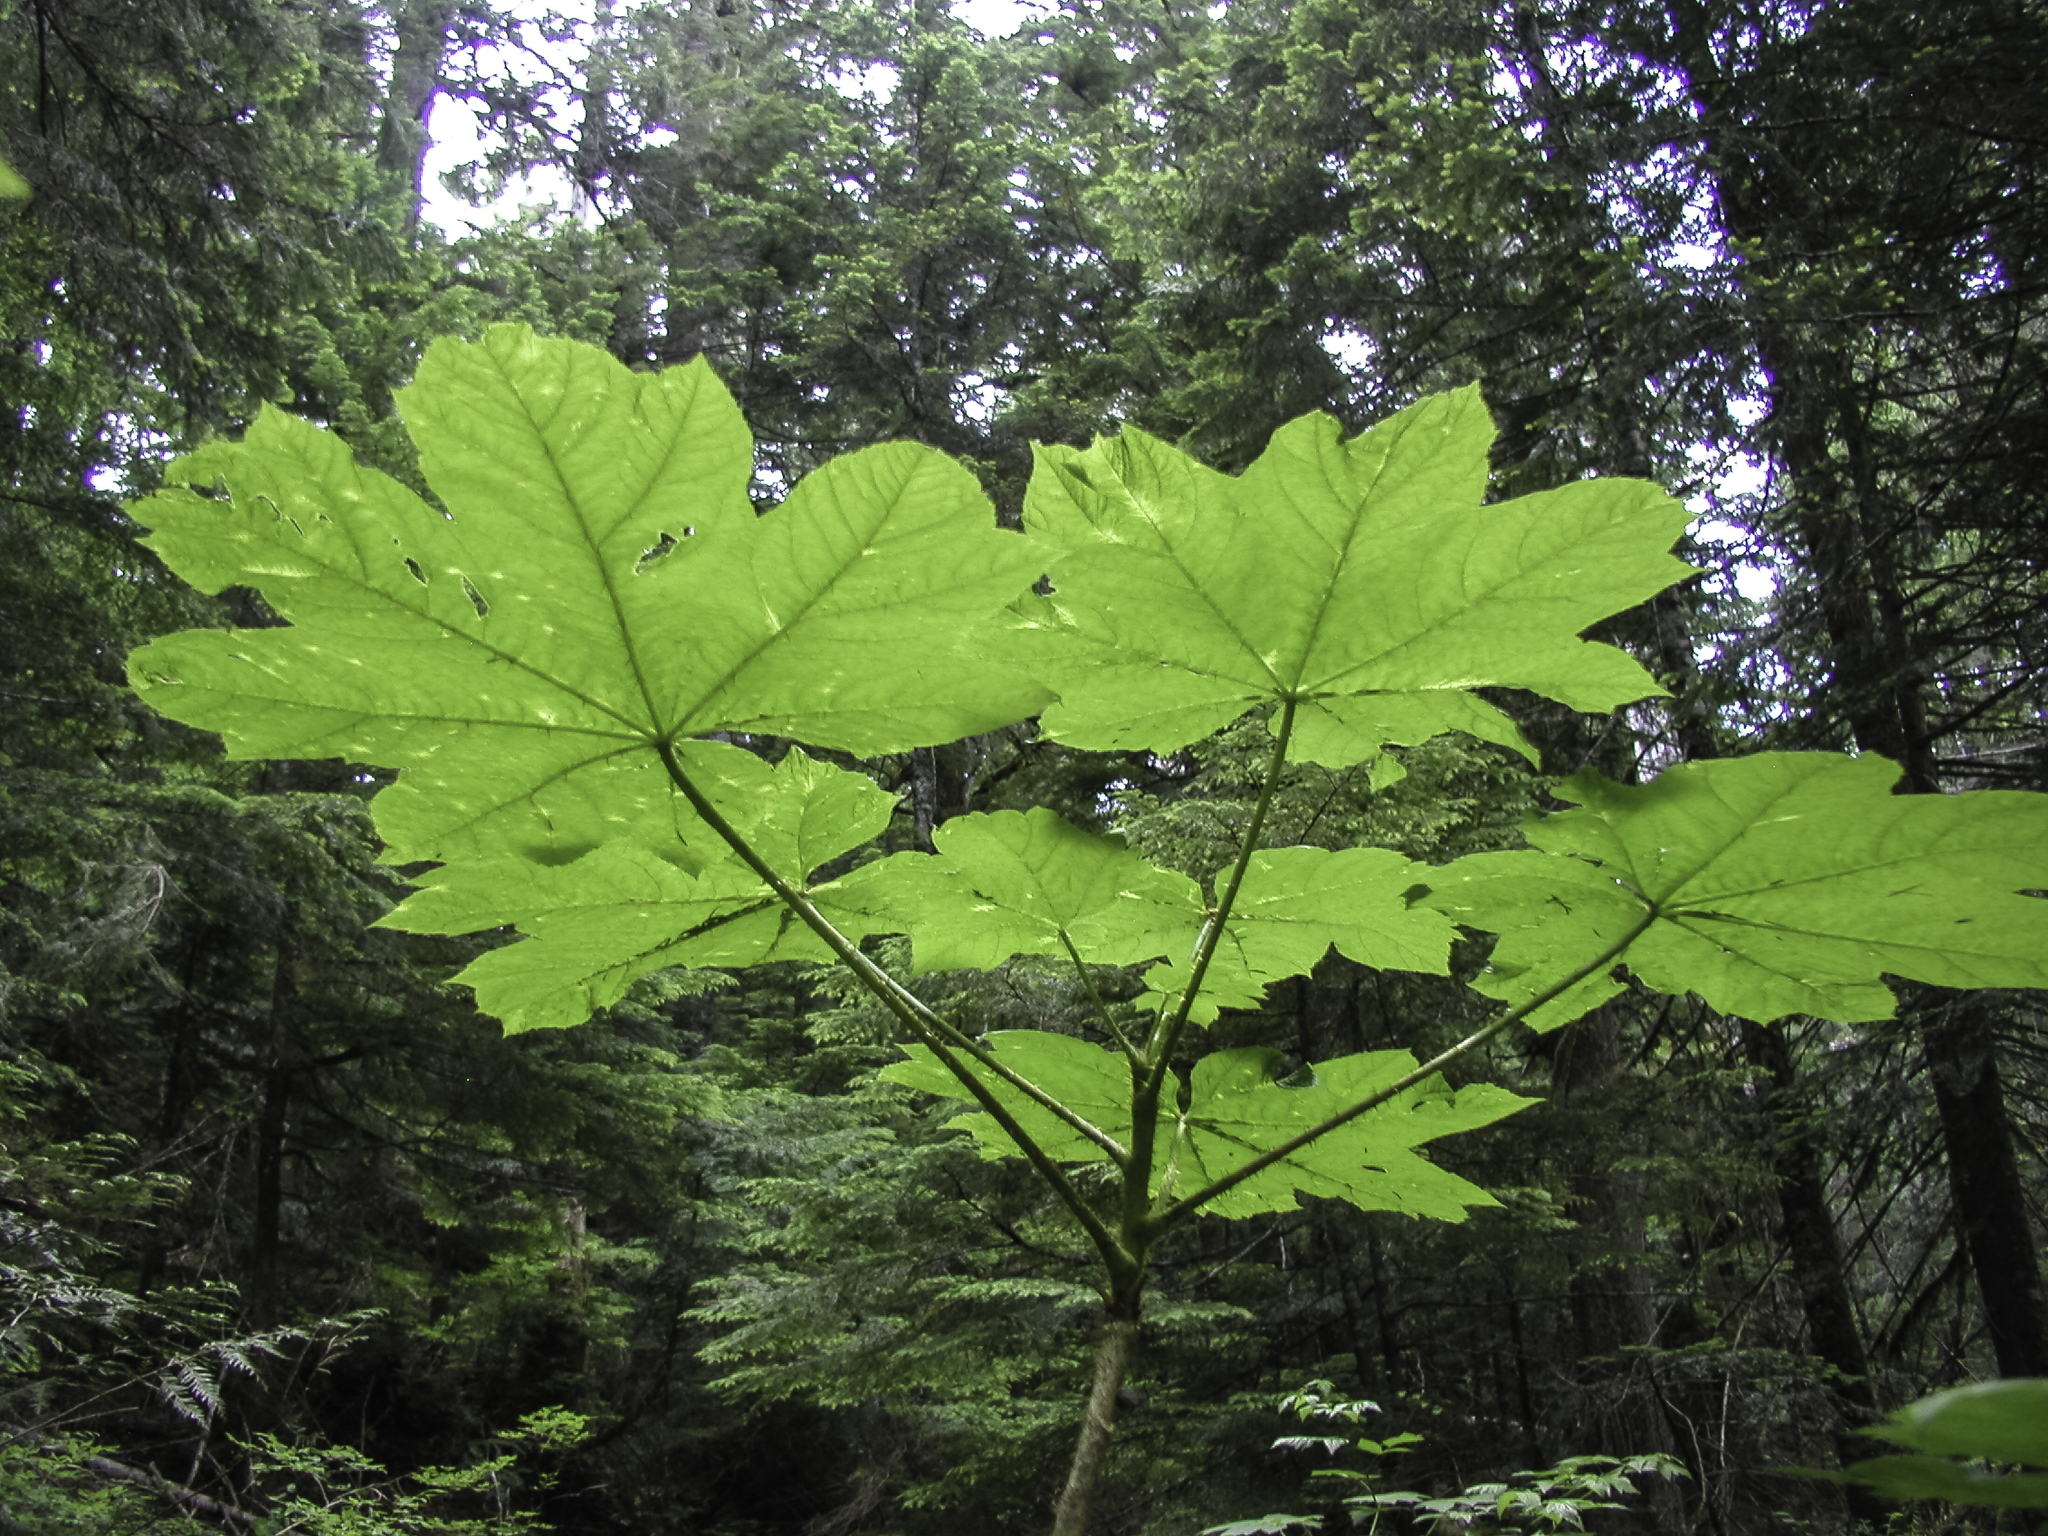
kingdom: Plantae
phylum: Tracheophyta
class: Magnoliopsida
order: Apiales
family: Araliaceae
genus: Oplopanax
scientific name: Oplopanax horridus
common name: Devil's walking-stick
